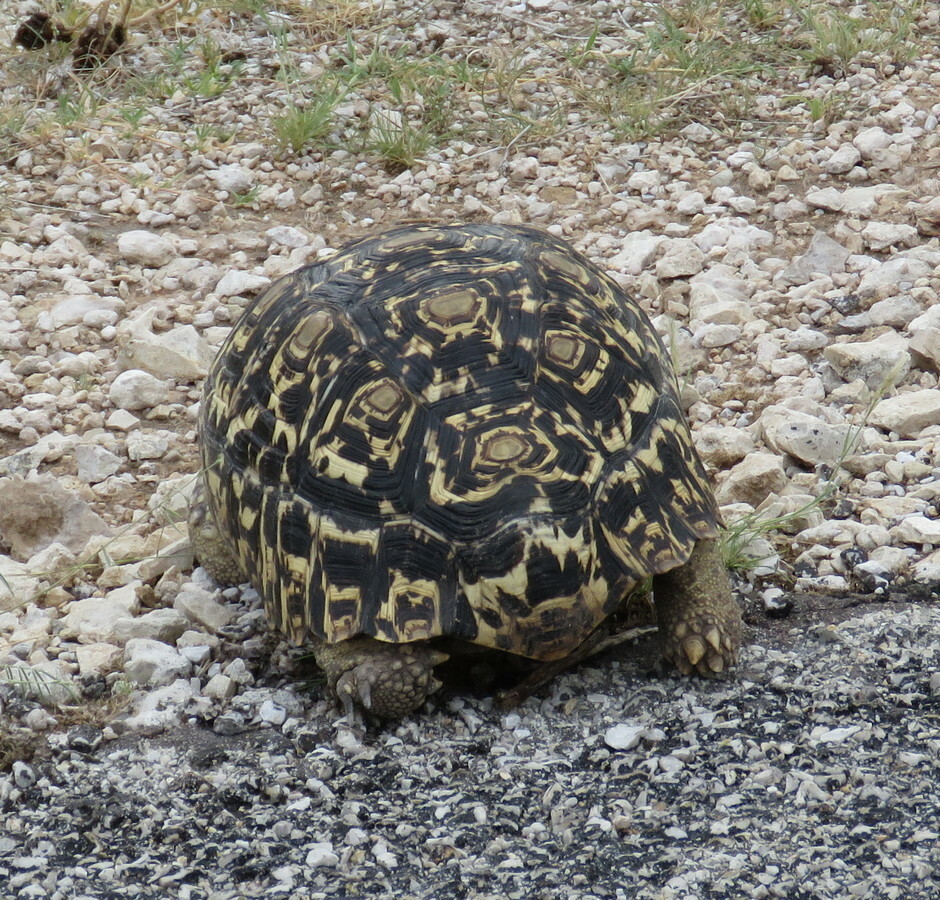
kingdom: Animalia
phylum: Chordata
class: Testudines
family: Testudinidae
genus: Stigmochelys
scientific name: Stigmochelys pardalis
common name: Leopard tortoise
